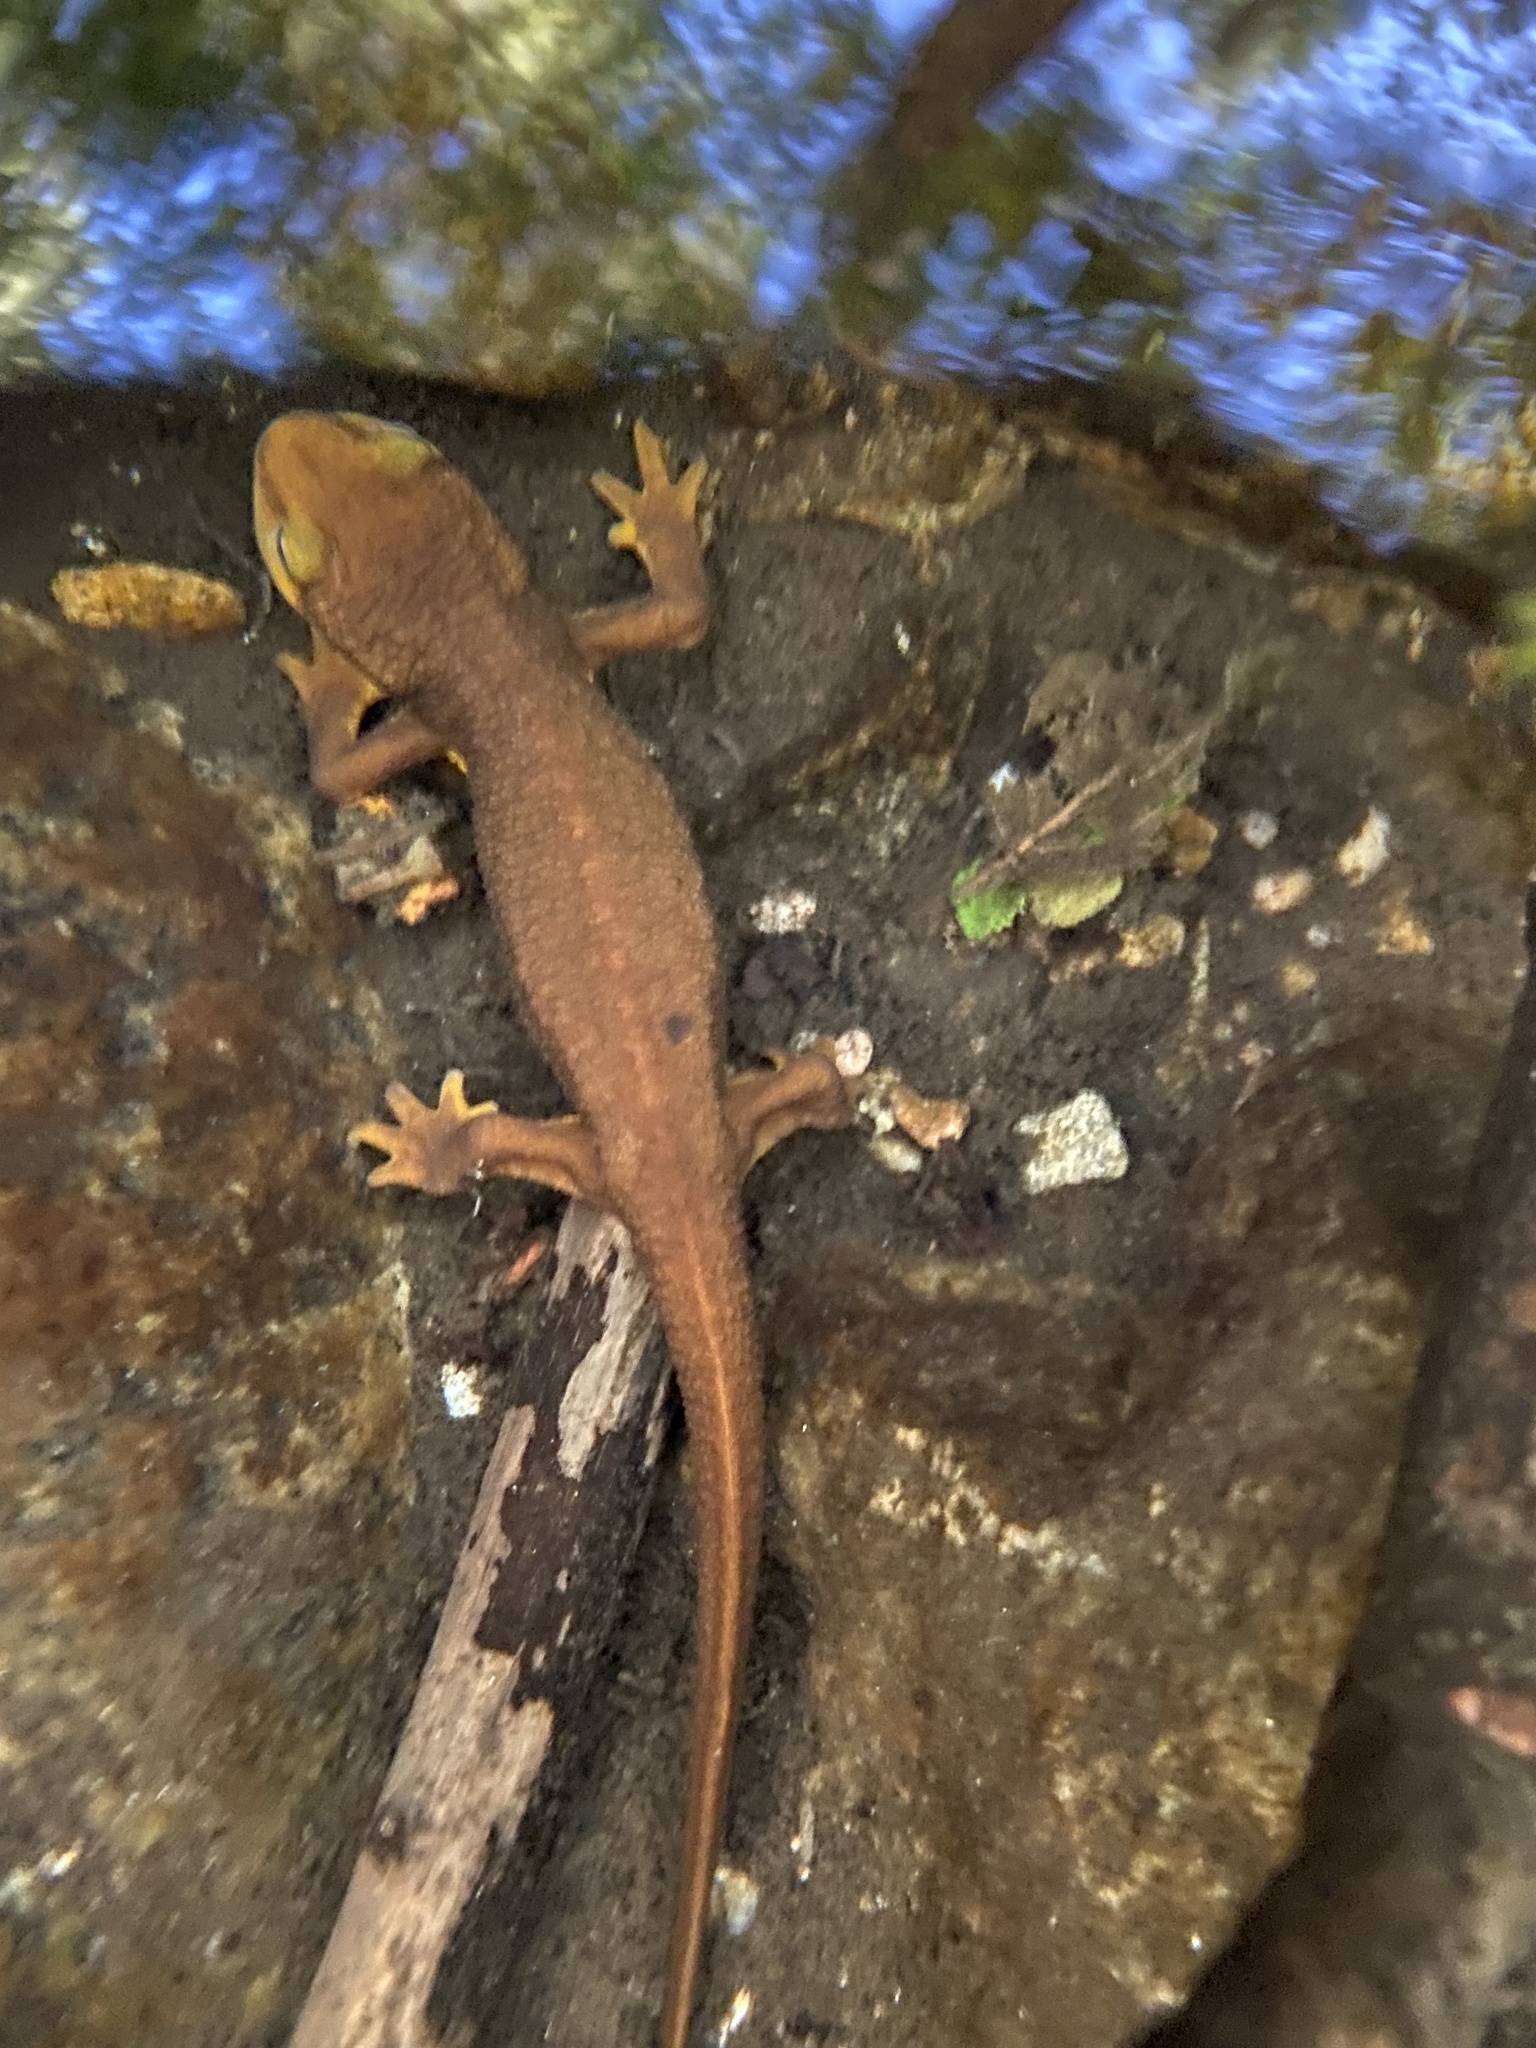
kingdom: Animalia
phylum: Chordata
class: Amphibia
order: Caudata
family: Salamandridae
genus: Taricha
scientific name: Taricha torosa
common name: California newt
